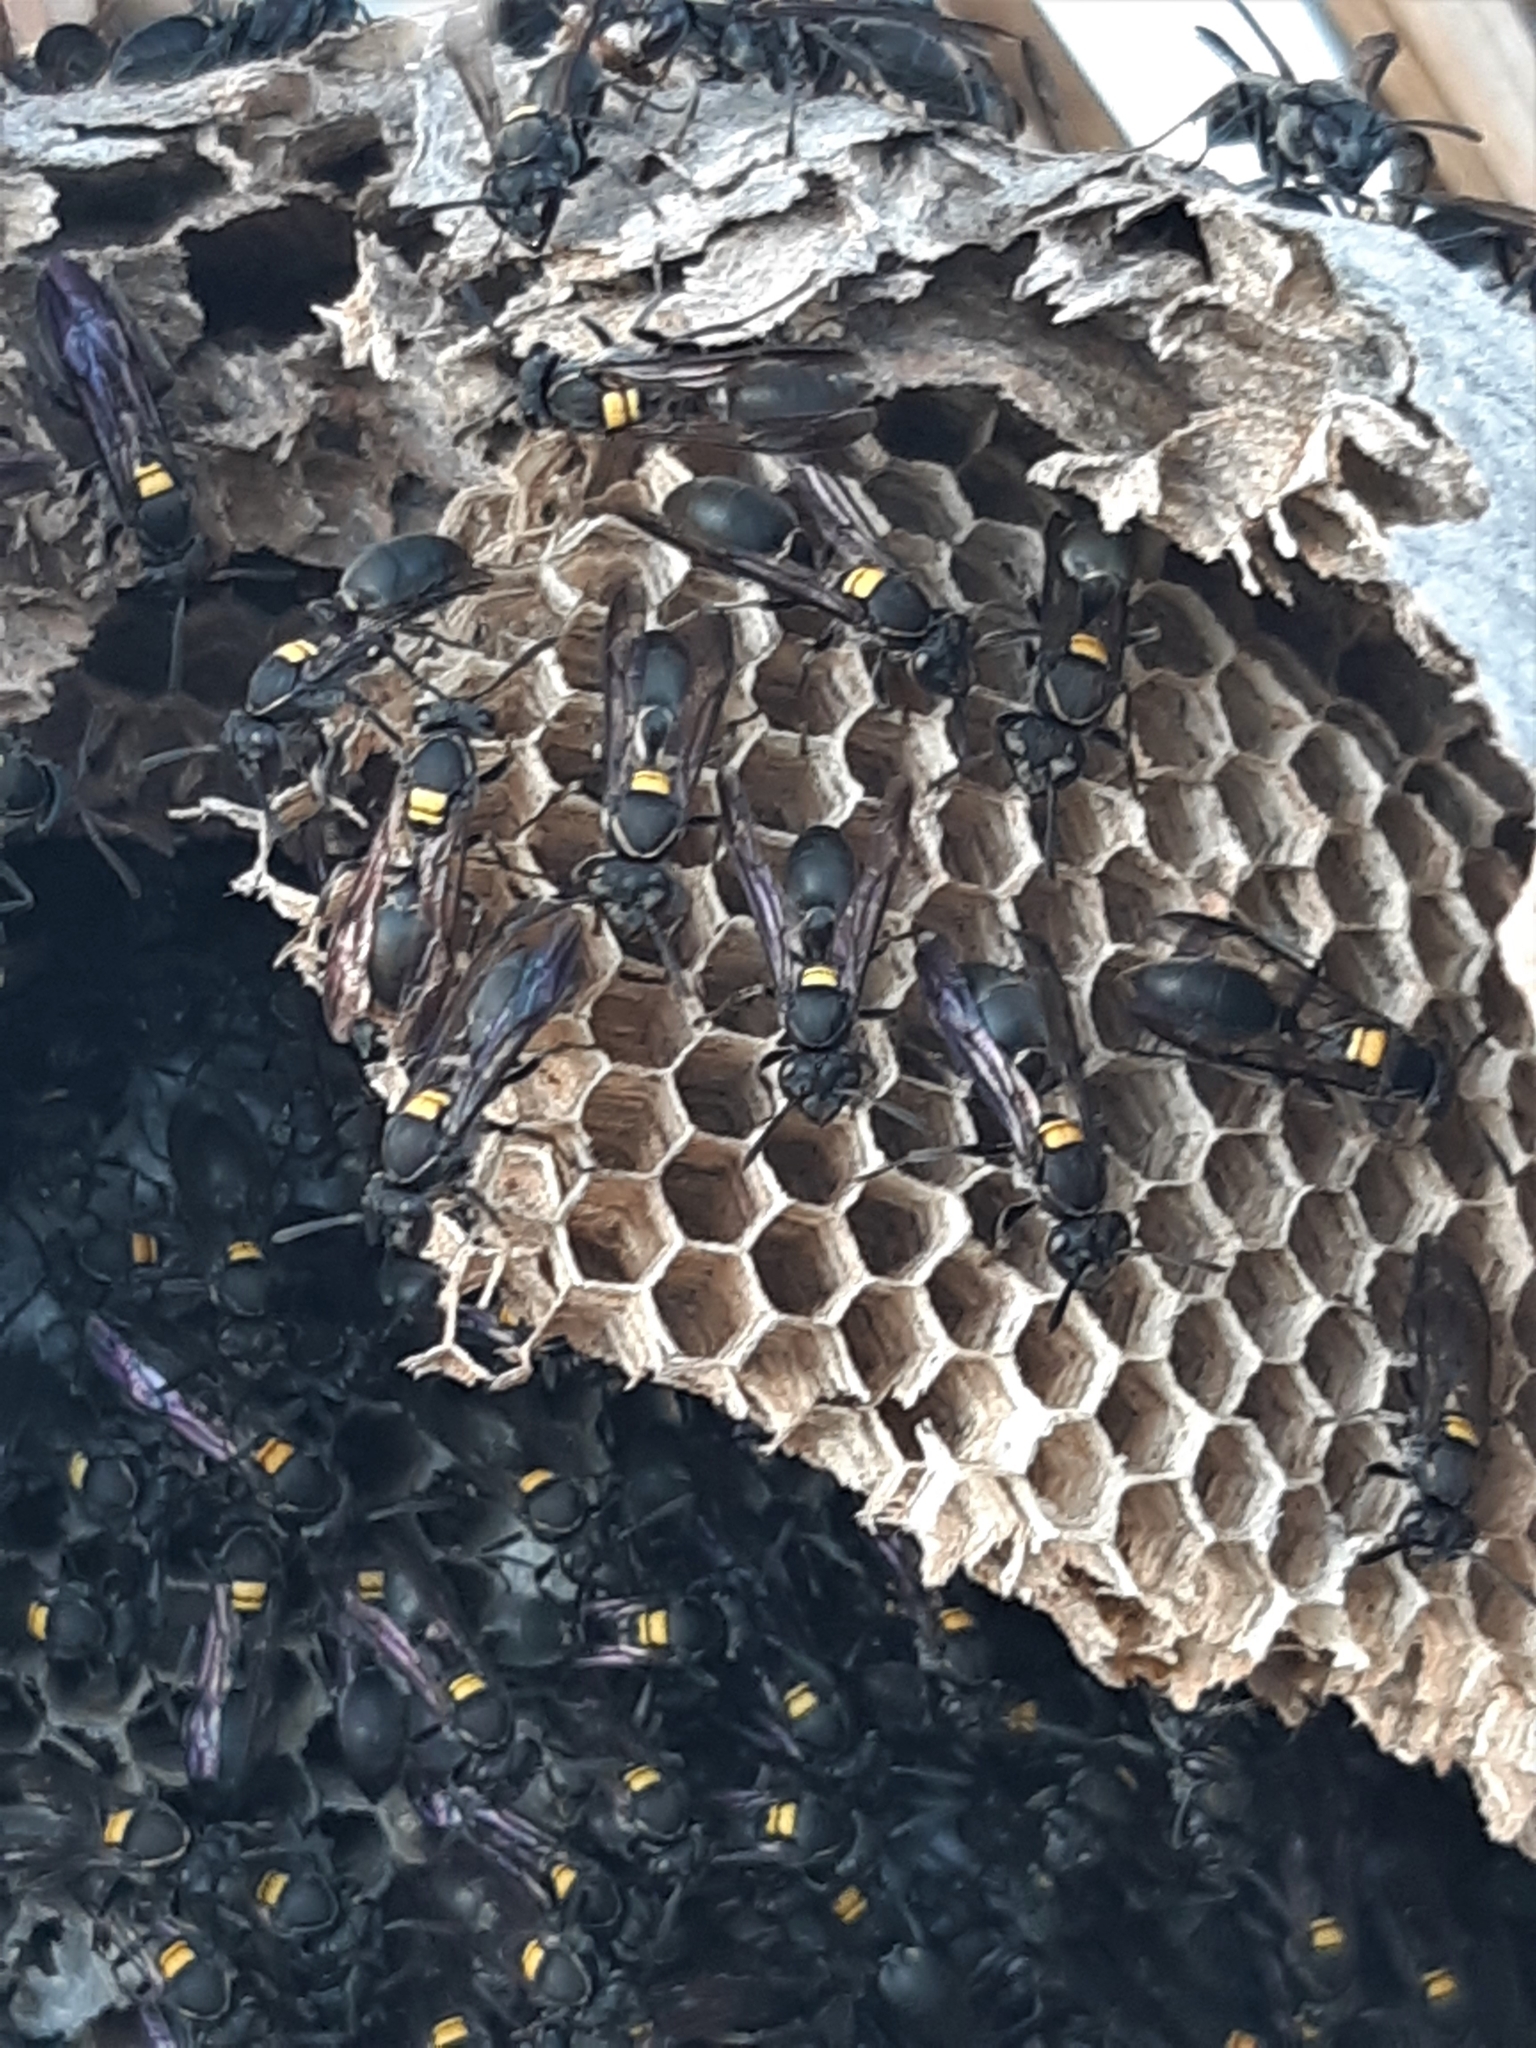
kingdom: Animalia
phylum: Arthropoda
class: Insecta
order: Hymenoptera
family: Eumenidae
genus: Polybia
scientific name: Polybia paulista
